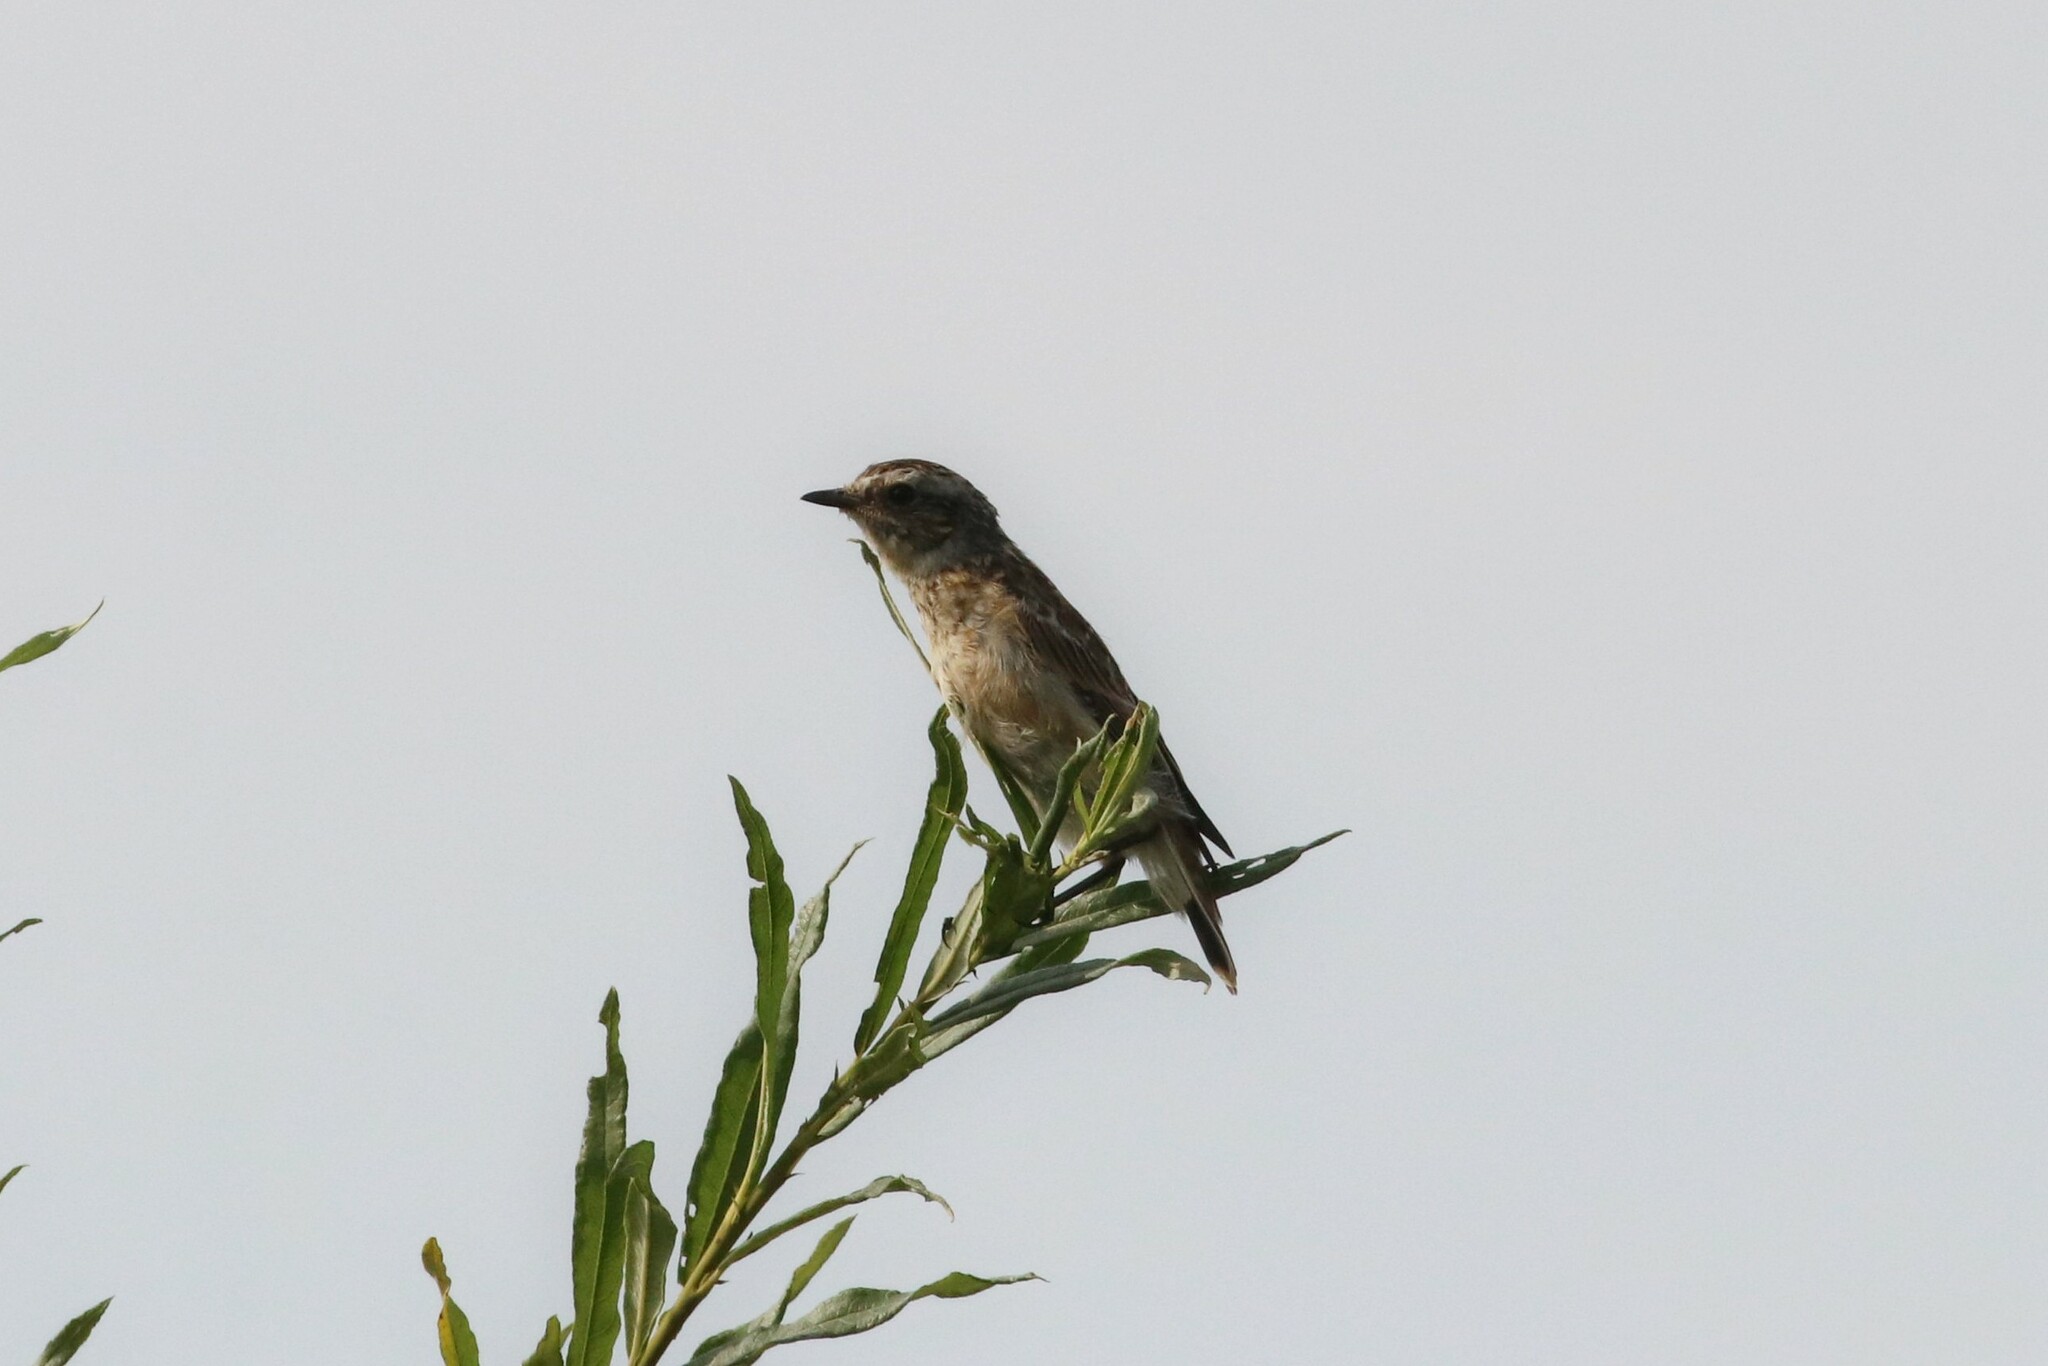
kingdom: Animalia
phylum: Chordata
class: Aves
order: Passeriformes
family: Muscicapidae
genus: Saxicola
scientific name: Saxicola rubetra
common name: Whinchat
